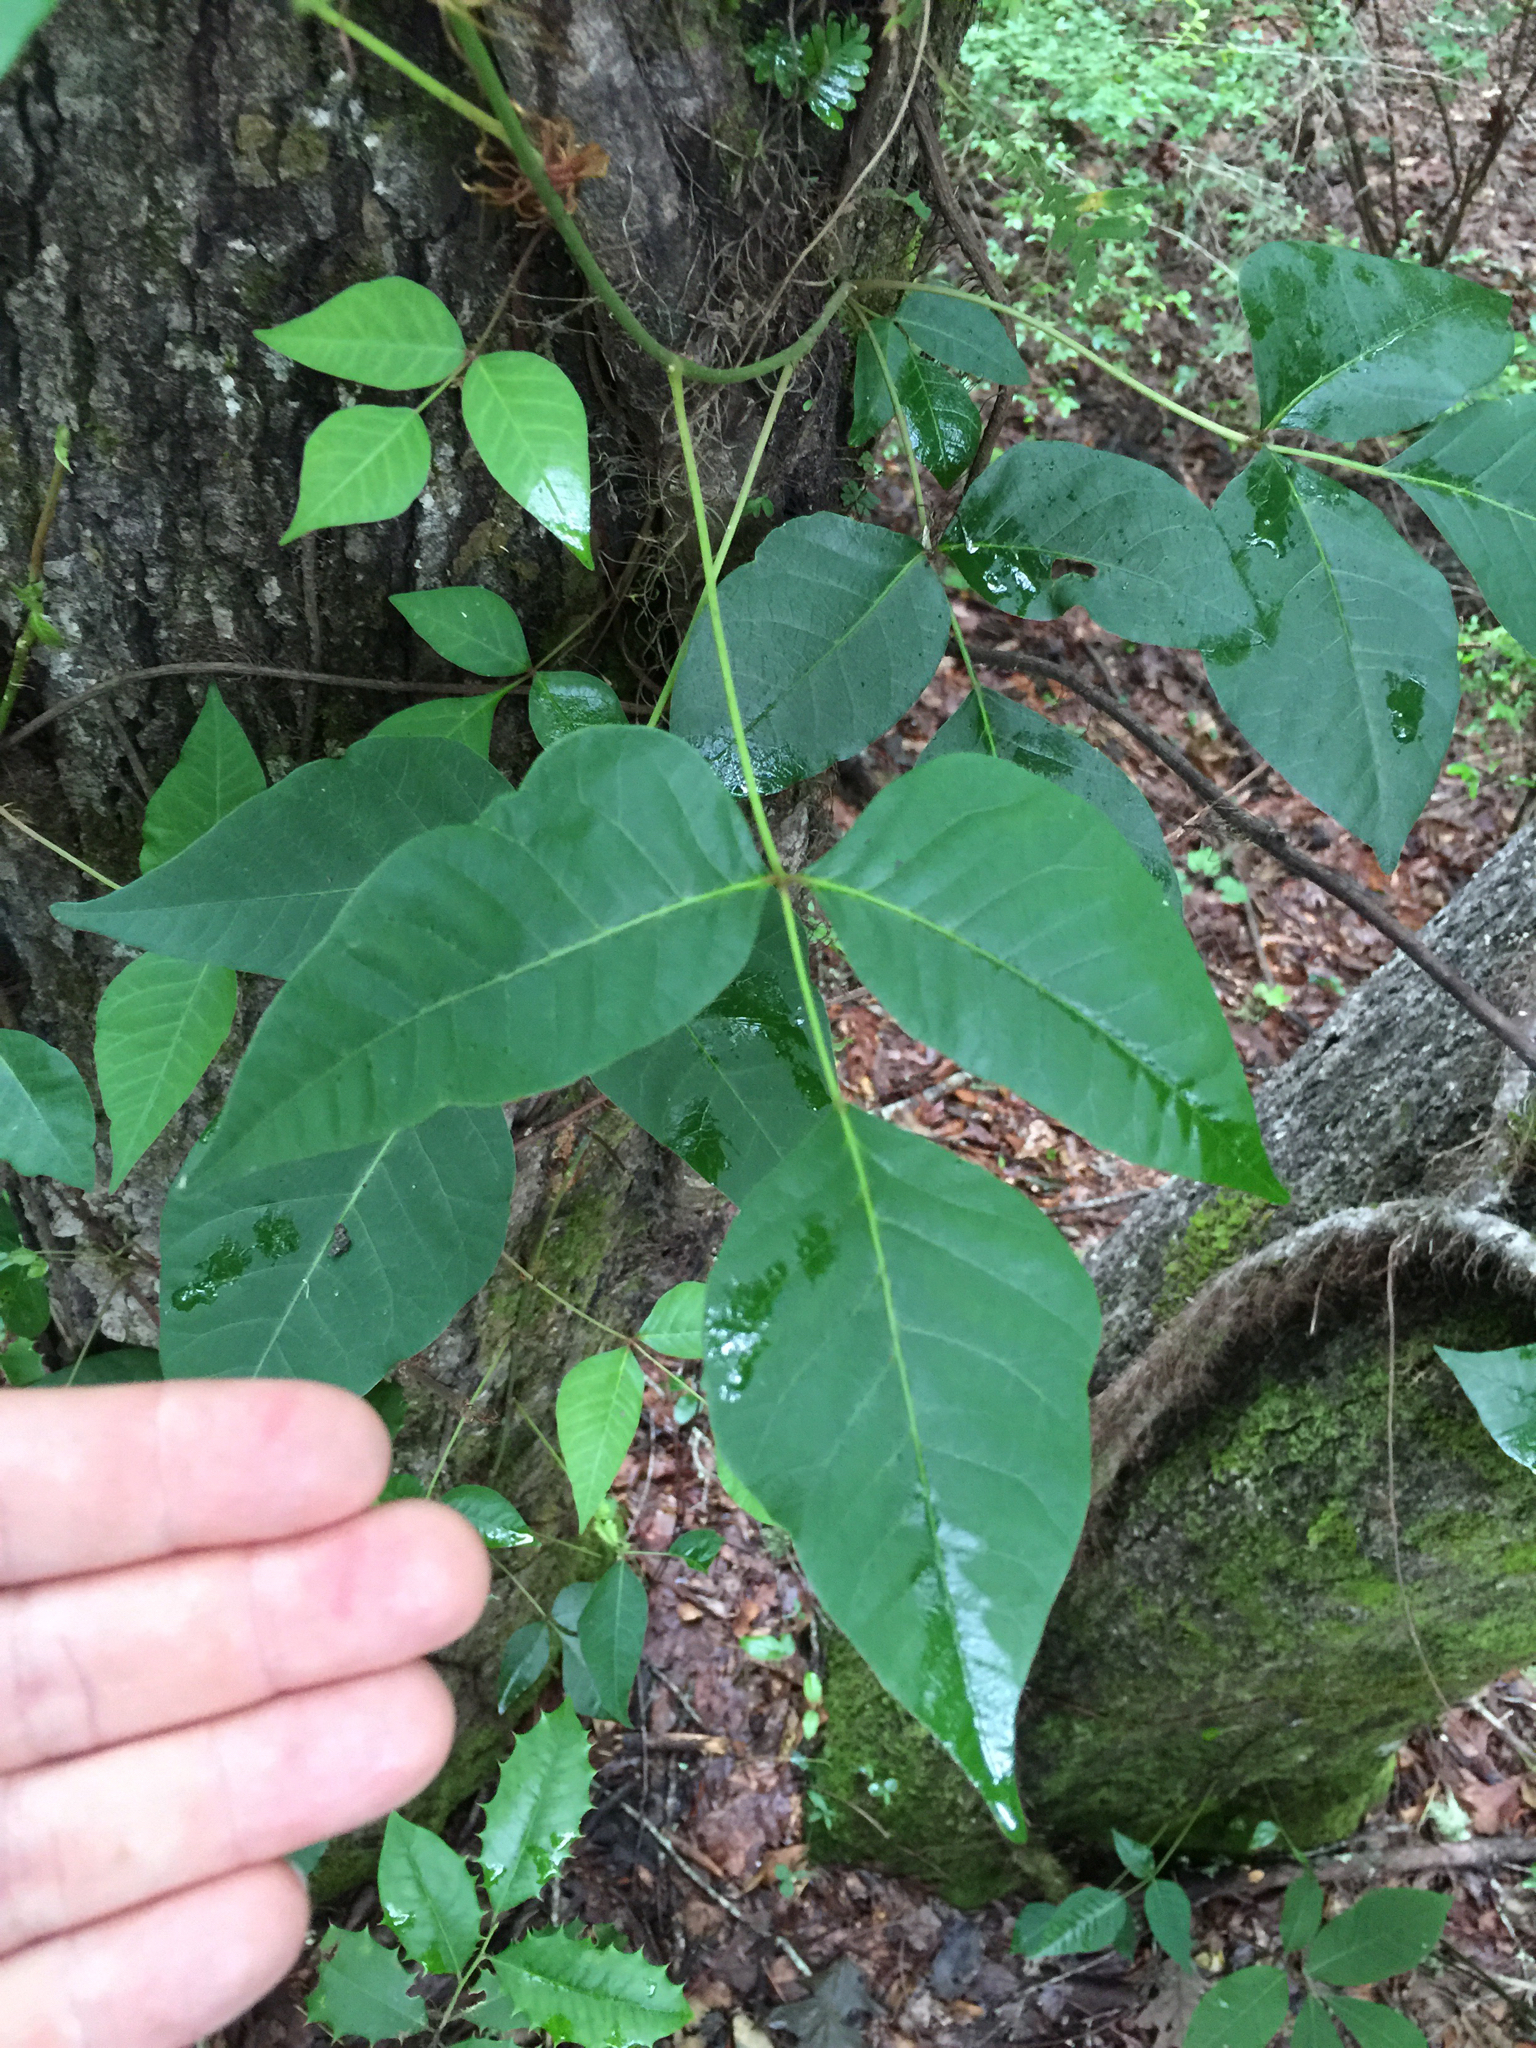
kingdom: Plantae
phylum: Tracheophyta
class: Magnoliopsida
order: Sapindales
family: Anacardiaceae
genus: Toxicodendron
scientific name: Toxicodendron radicans
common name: Poison ivy
